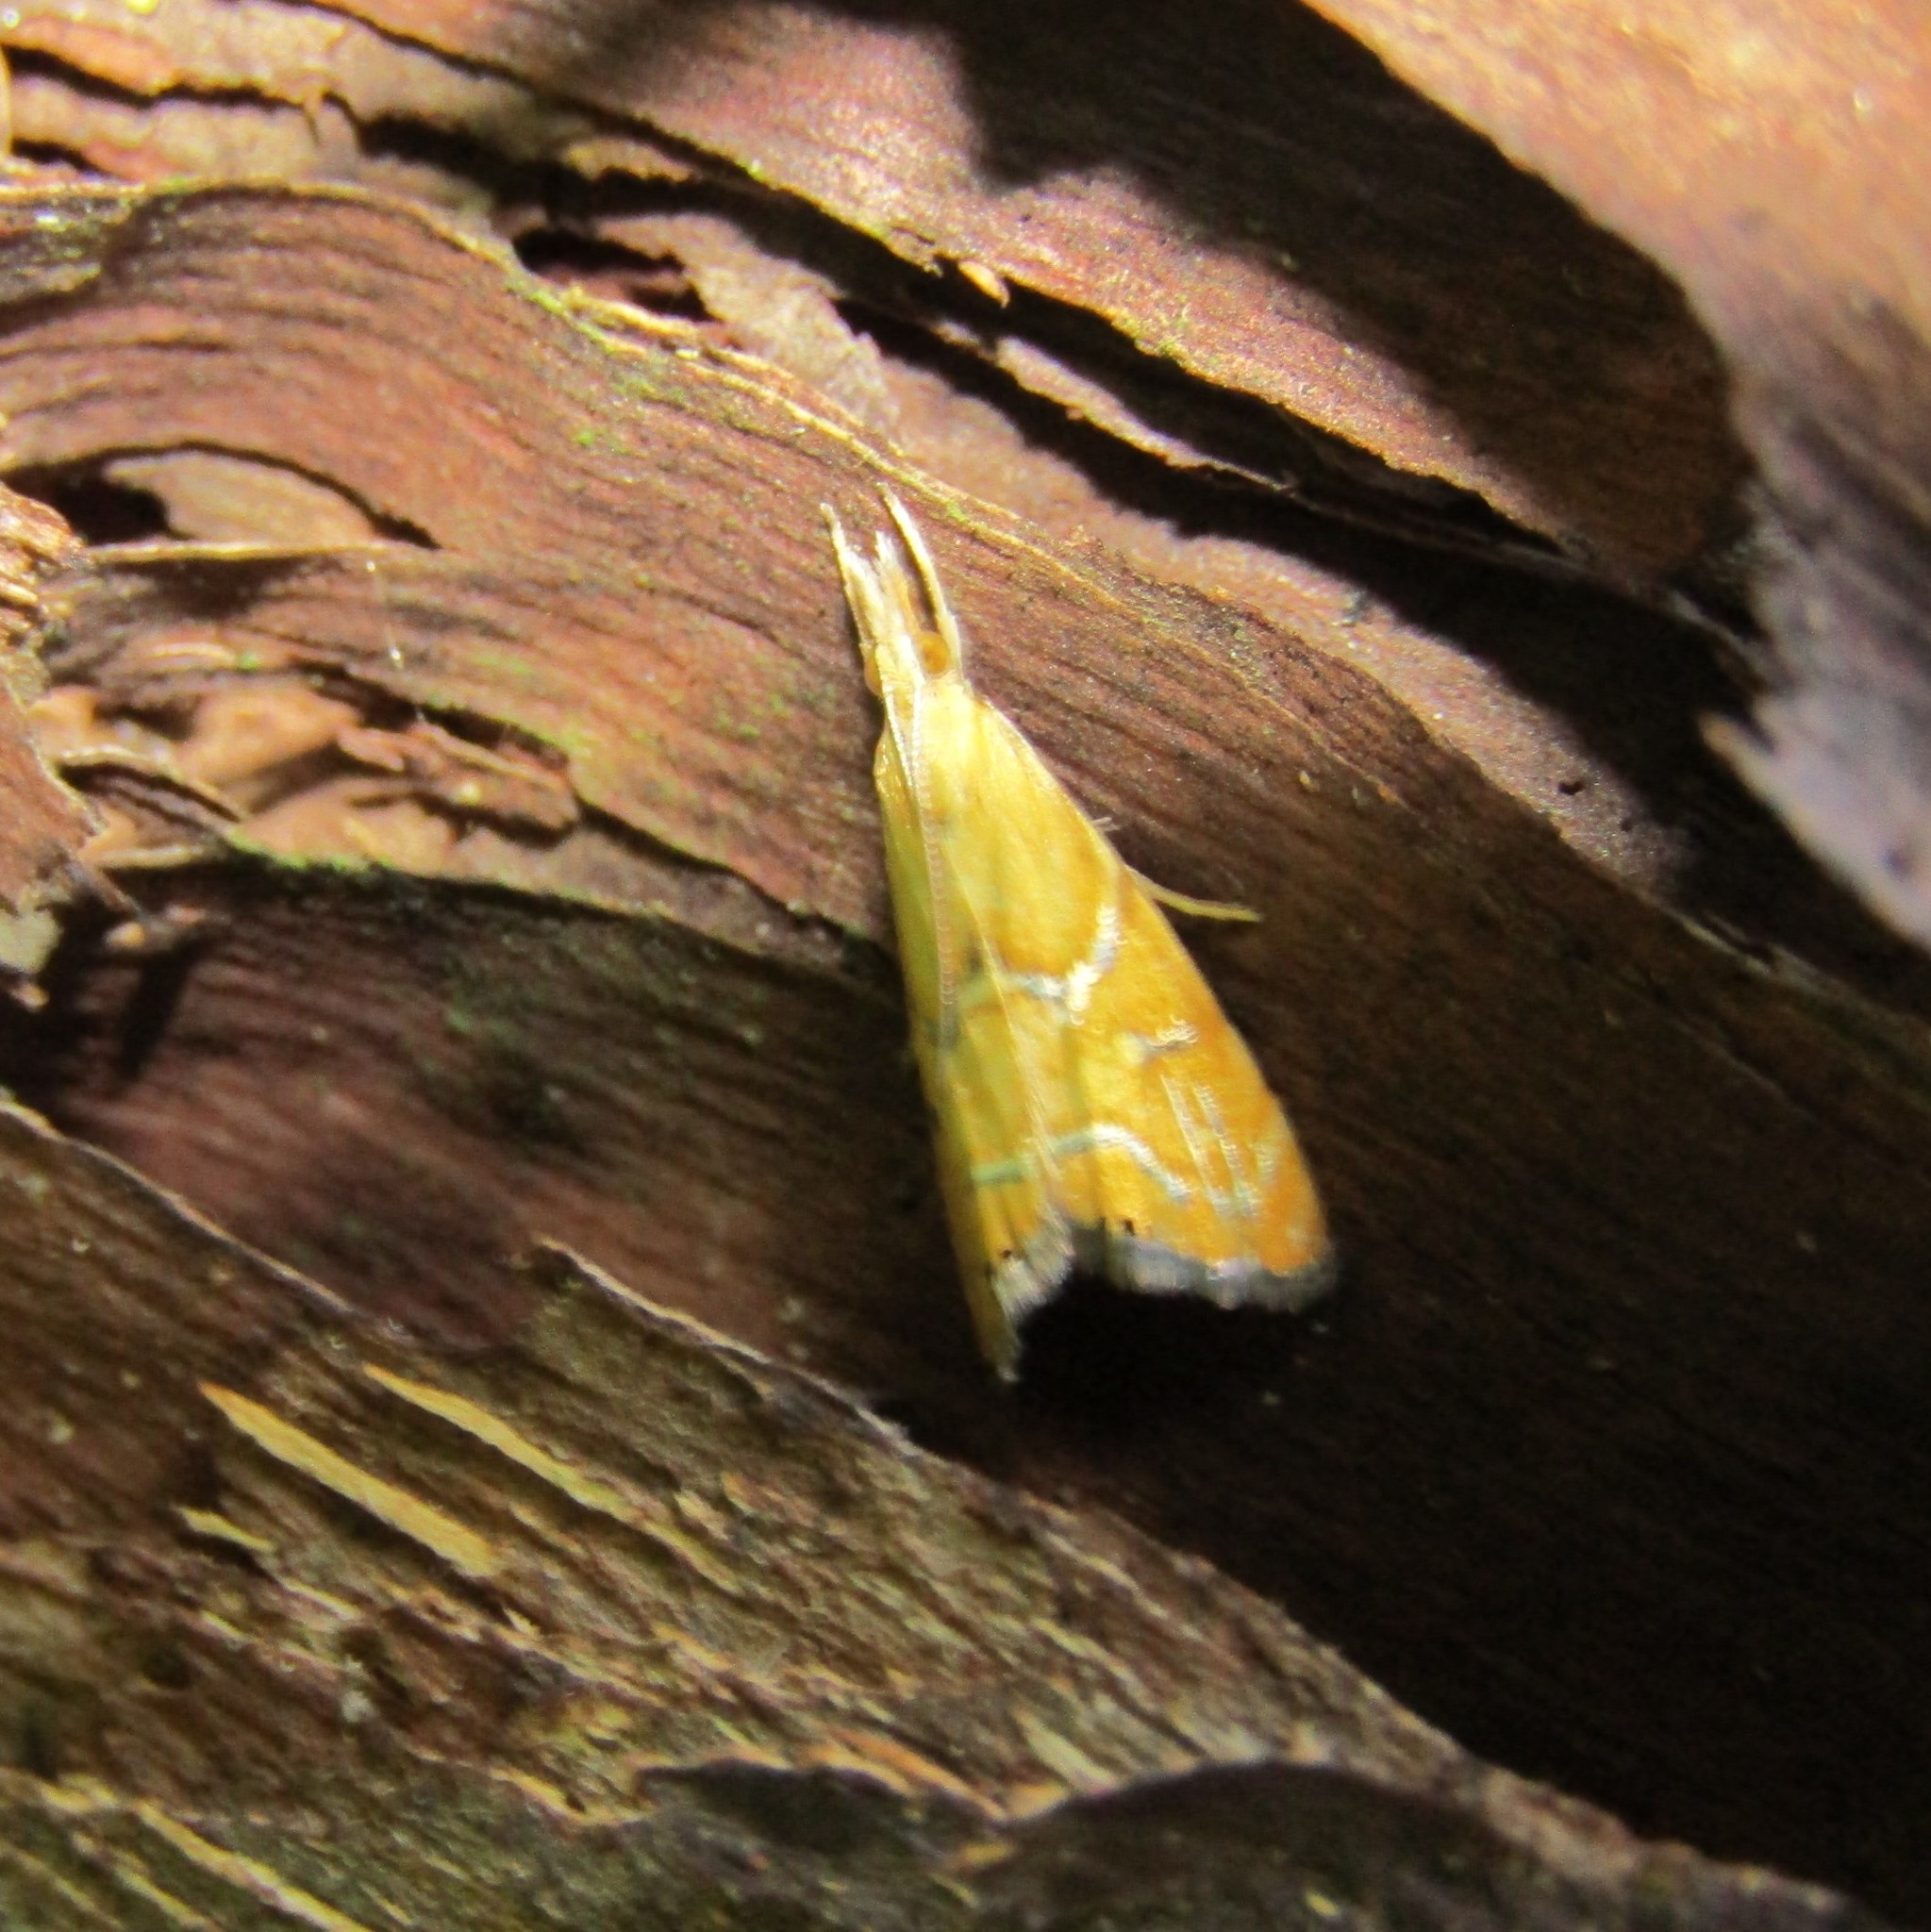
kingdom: Animalia
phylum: Arthropoda
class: Insecta
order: Lepidoptera
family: Crambidae
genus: Glaucocharis
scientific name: Glaucocharis auriscriptella
